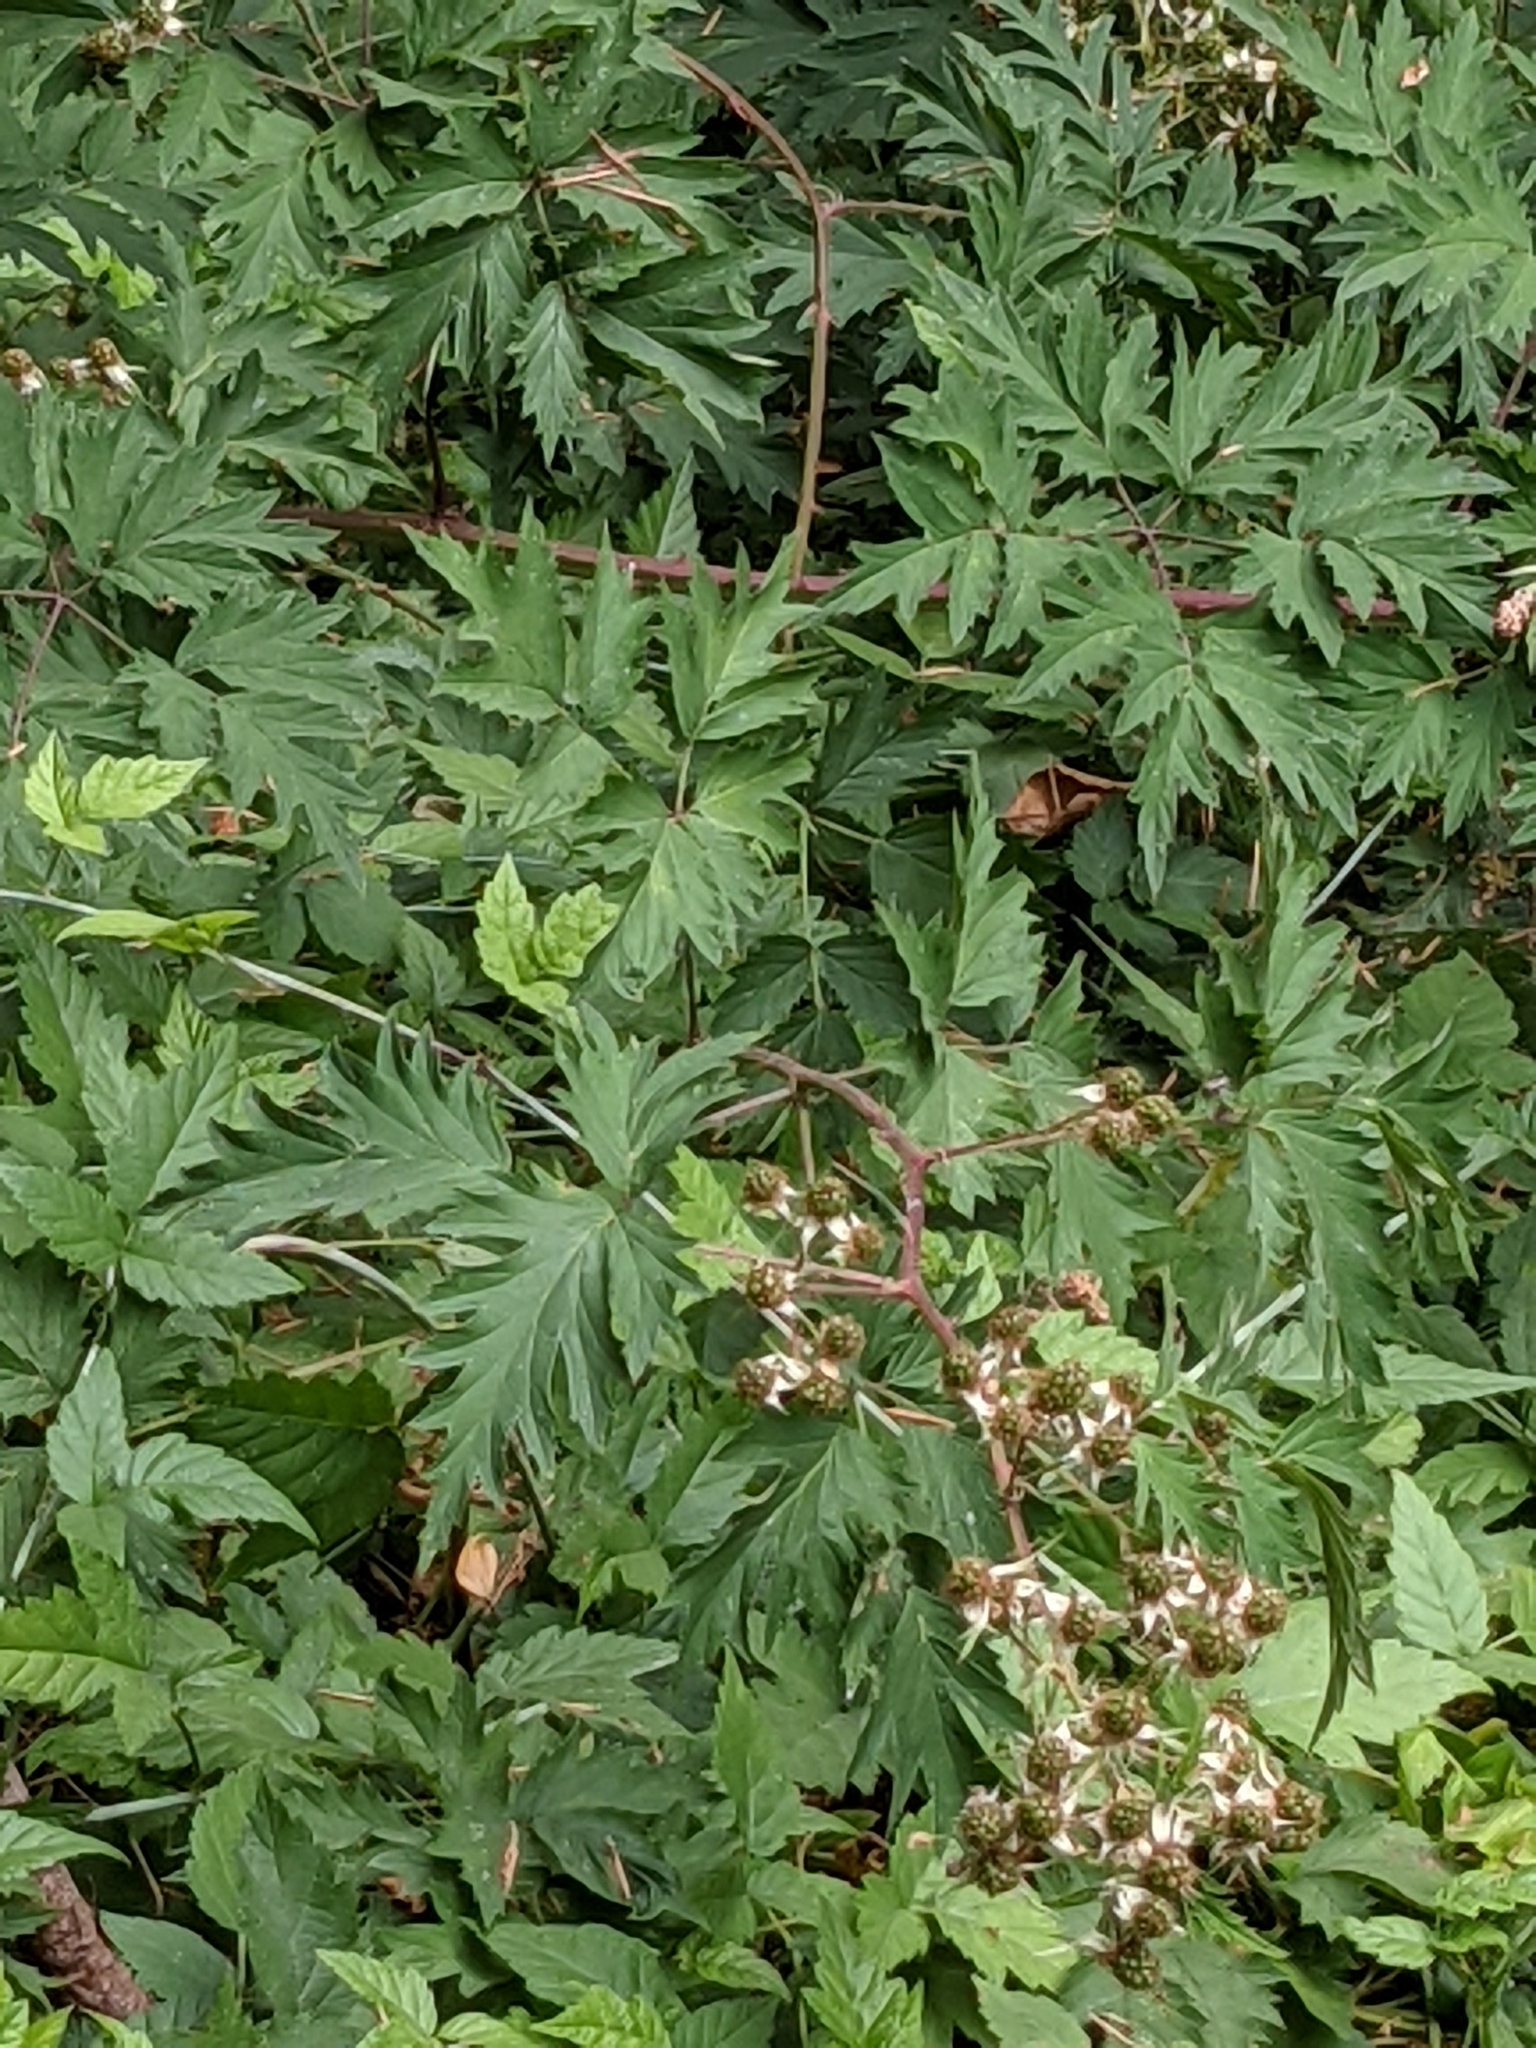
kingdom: Plantae
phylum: Tracheophyta
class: Magnoliopsida
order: Rosales
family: Rosaceae
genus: Rubus
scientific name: Rubus laciniatus
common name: Evergreen blackberry
